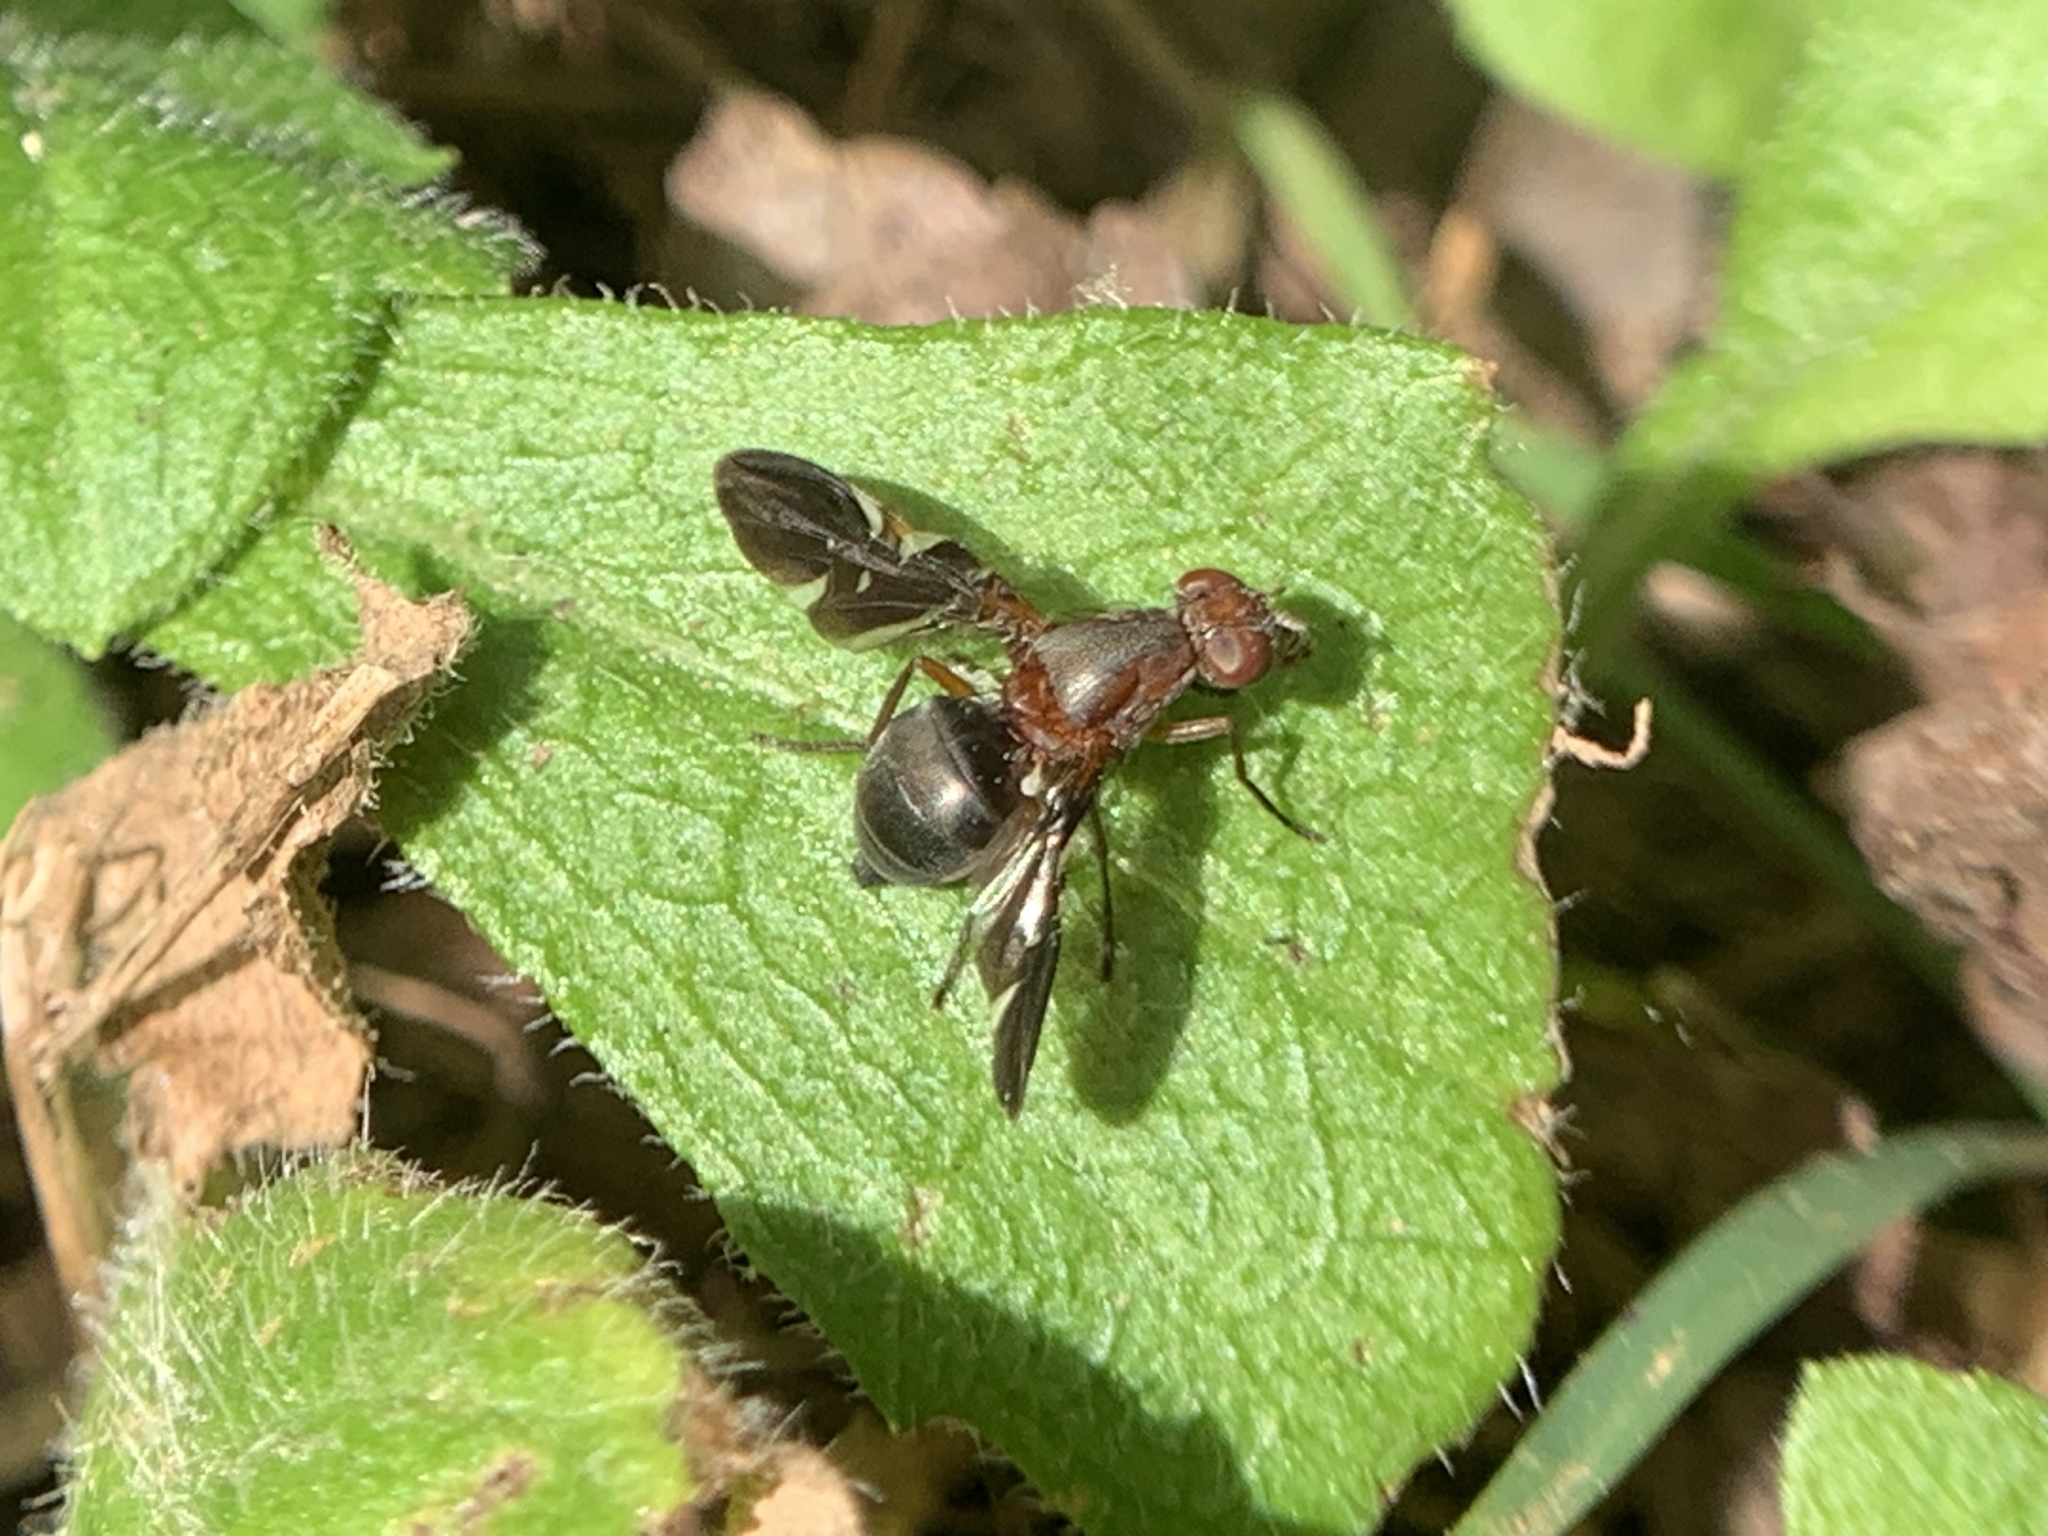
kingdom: Animalia
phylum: Arthropoda
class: Insecta
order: Diptera
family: Ulidiidae
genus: Delphinia
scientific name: Delphinia picta
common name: Common picture-winged fly
